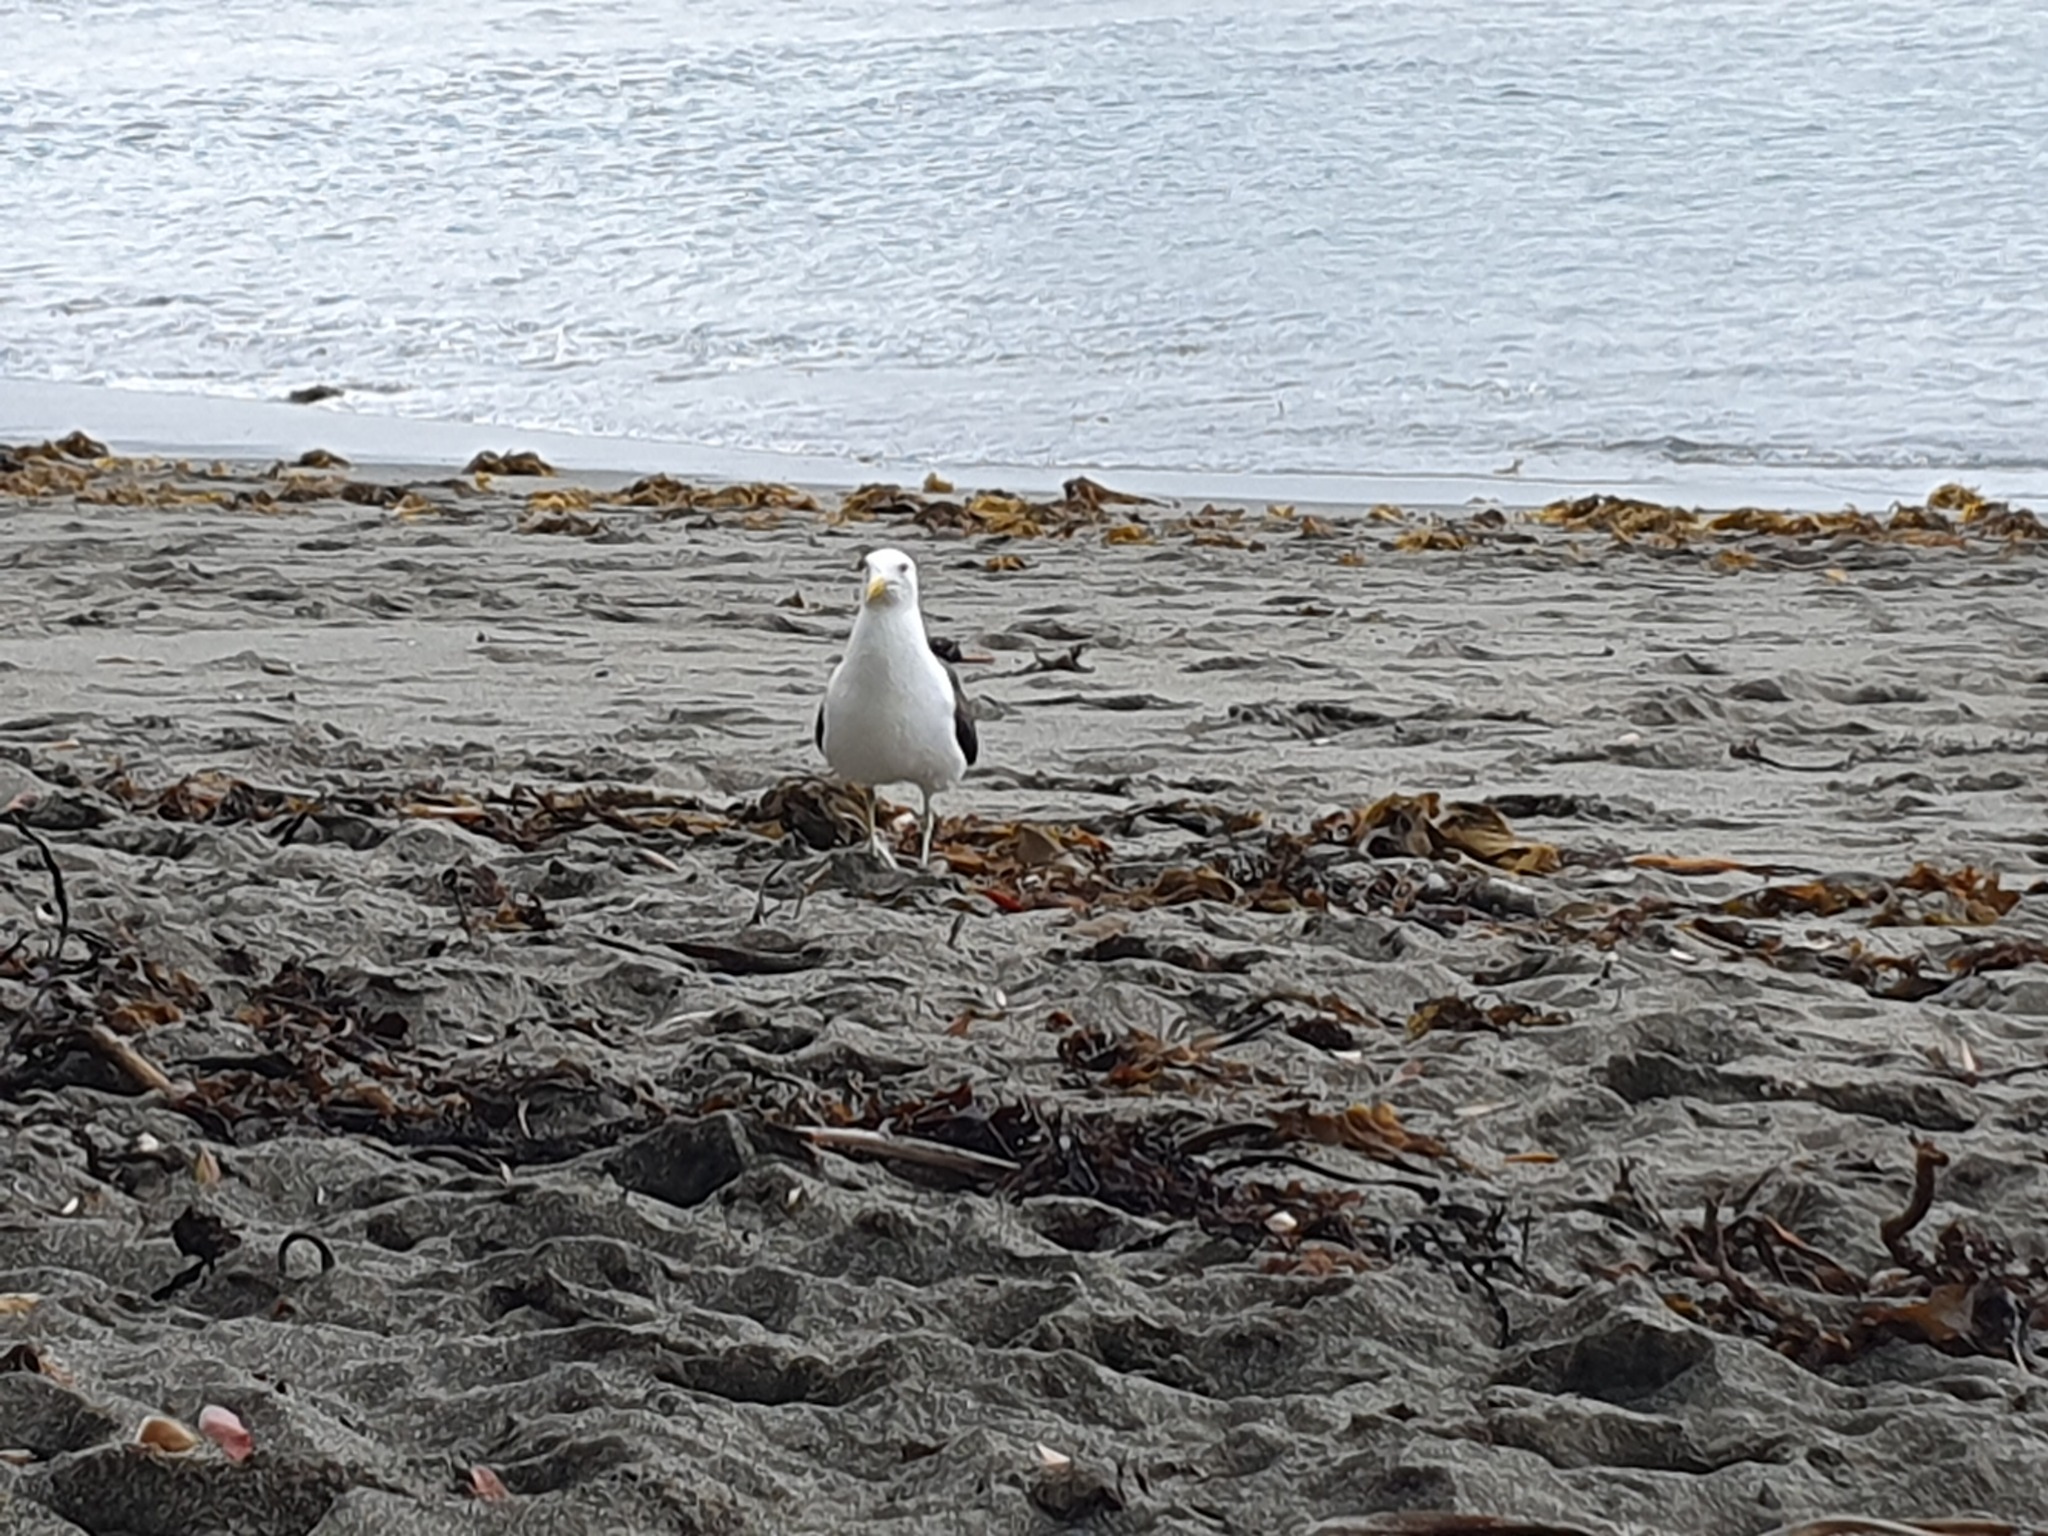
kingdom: Animalia
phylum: Chordata
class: Aves
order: Charadriiformes
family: Laridae
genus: Larus
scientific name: Larus dominicanus
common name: Kelp gull
